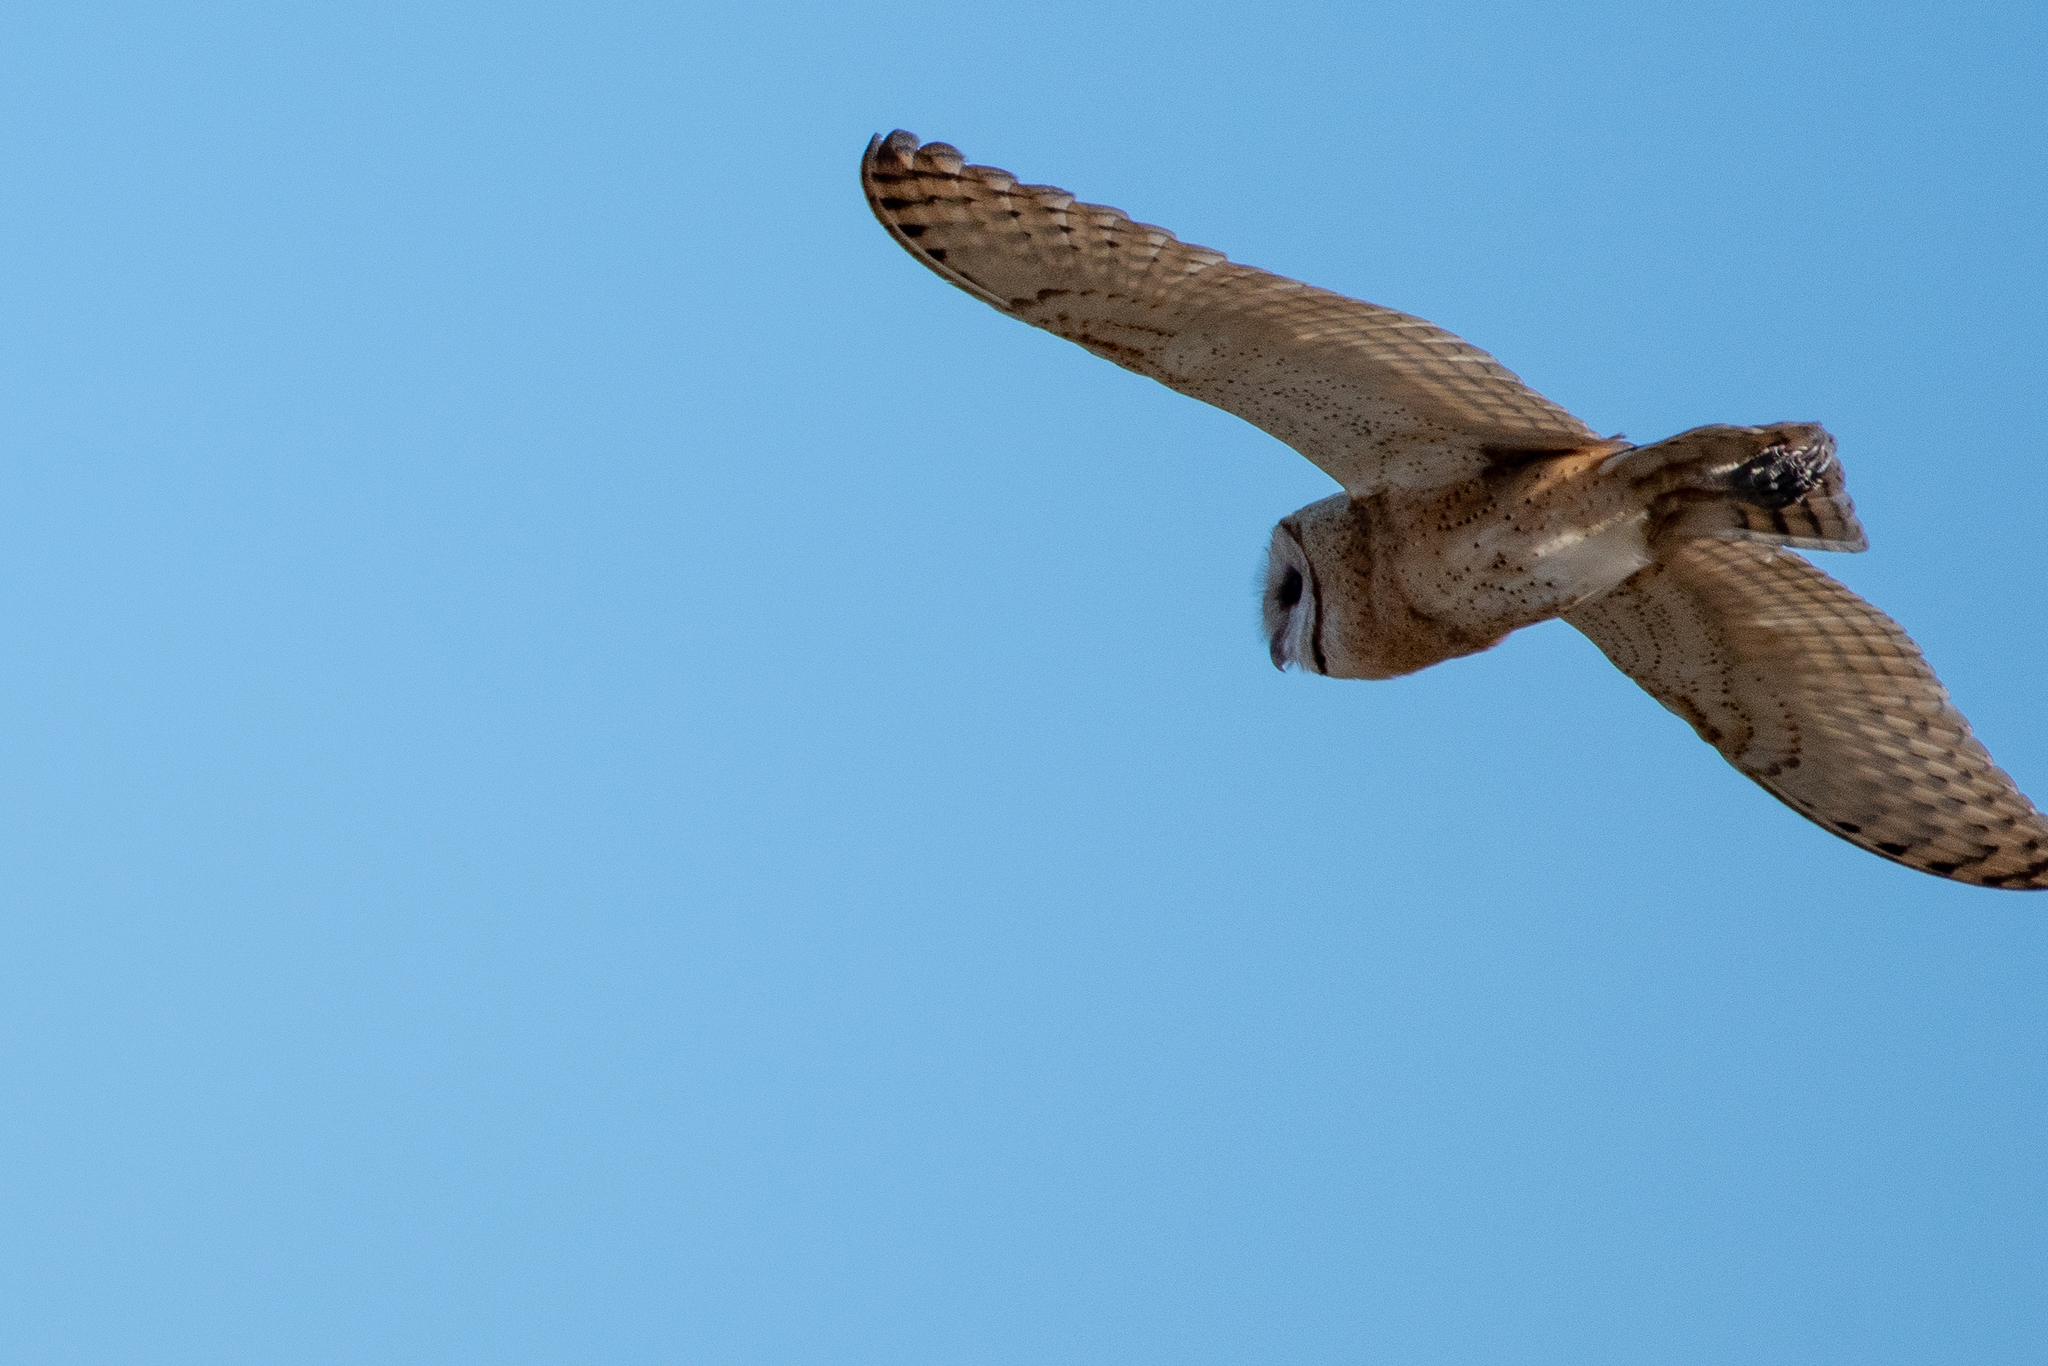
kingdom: Animalia
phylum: Chordata
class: Aves
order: Strigiformes
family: Tytonidae
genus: Tyto
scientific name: Tyto alba
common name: Barn owl
